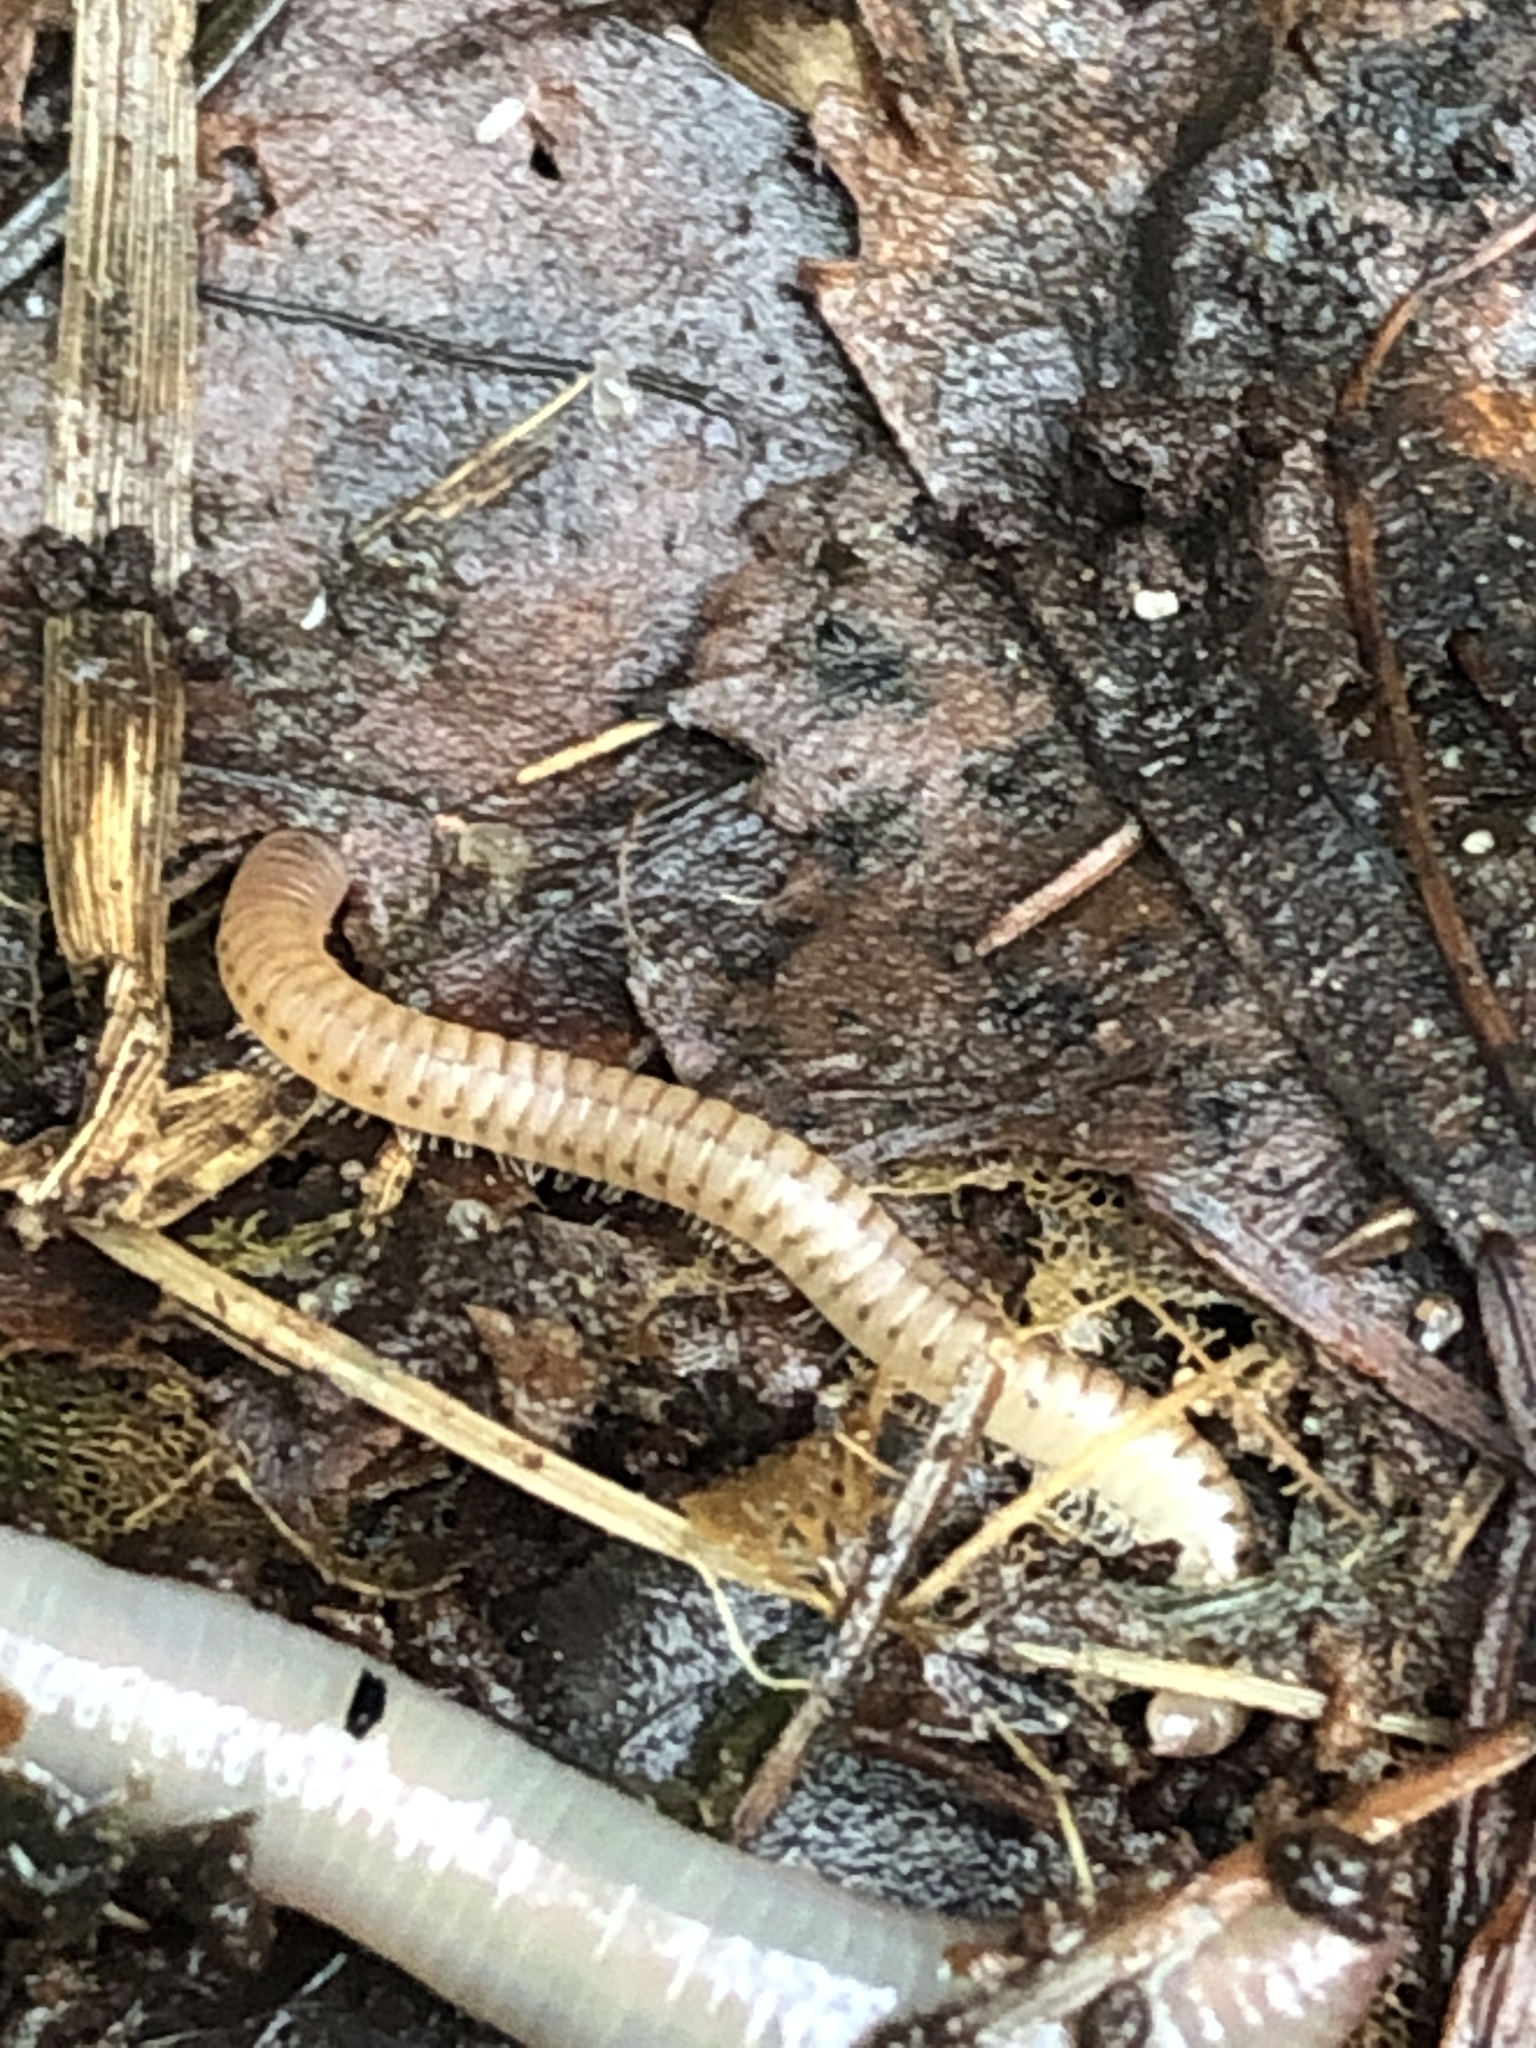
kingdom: Animalia
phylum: Arthropoda
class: Diplopoda
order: Julida
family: Julidae
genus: Cylindroiulus
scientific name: Cylindroiulus punctatus
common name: Blunt-tailed millipede
